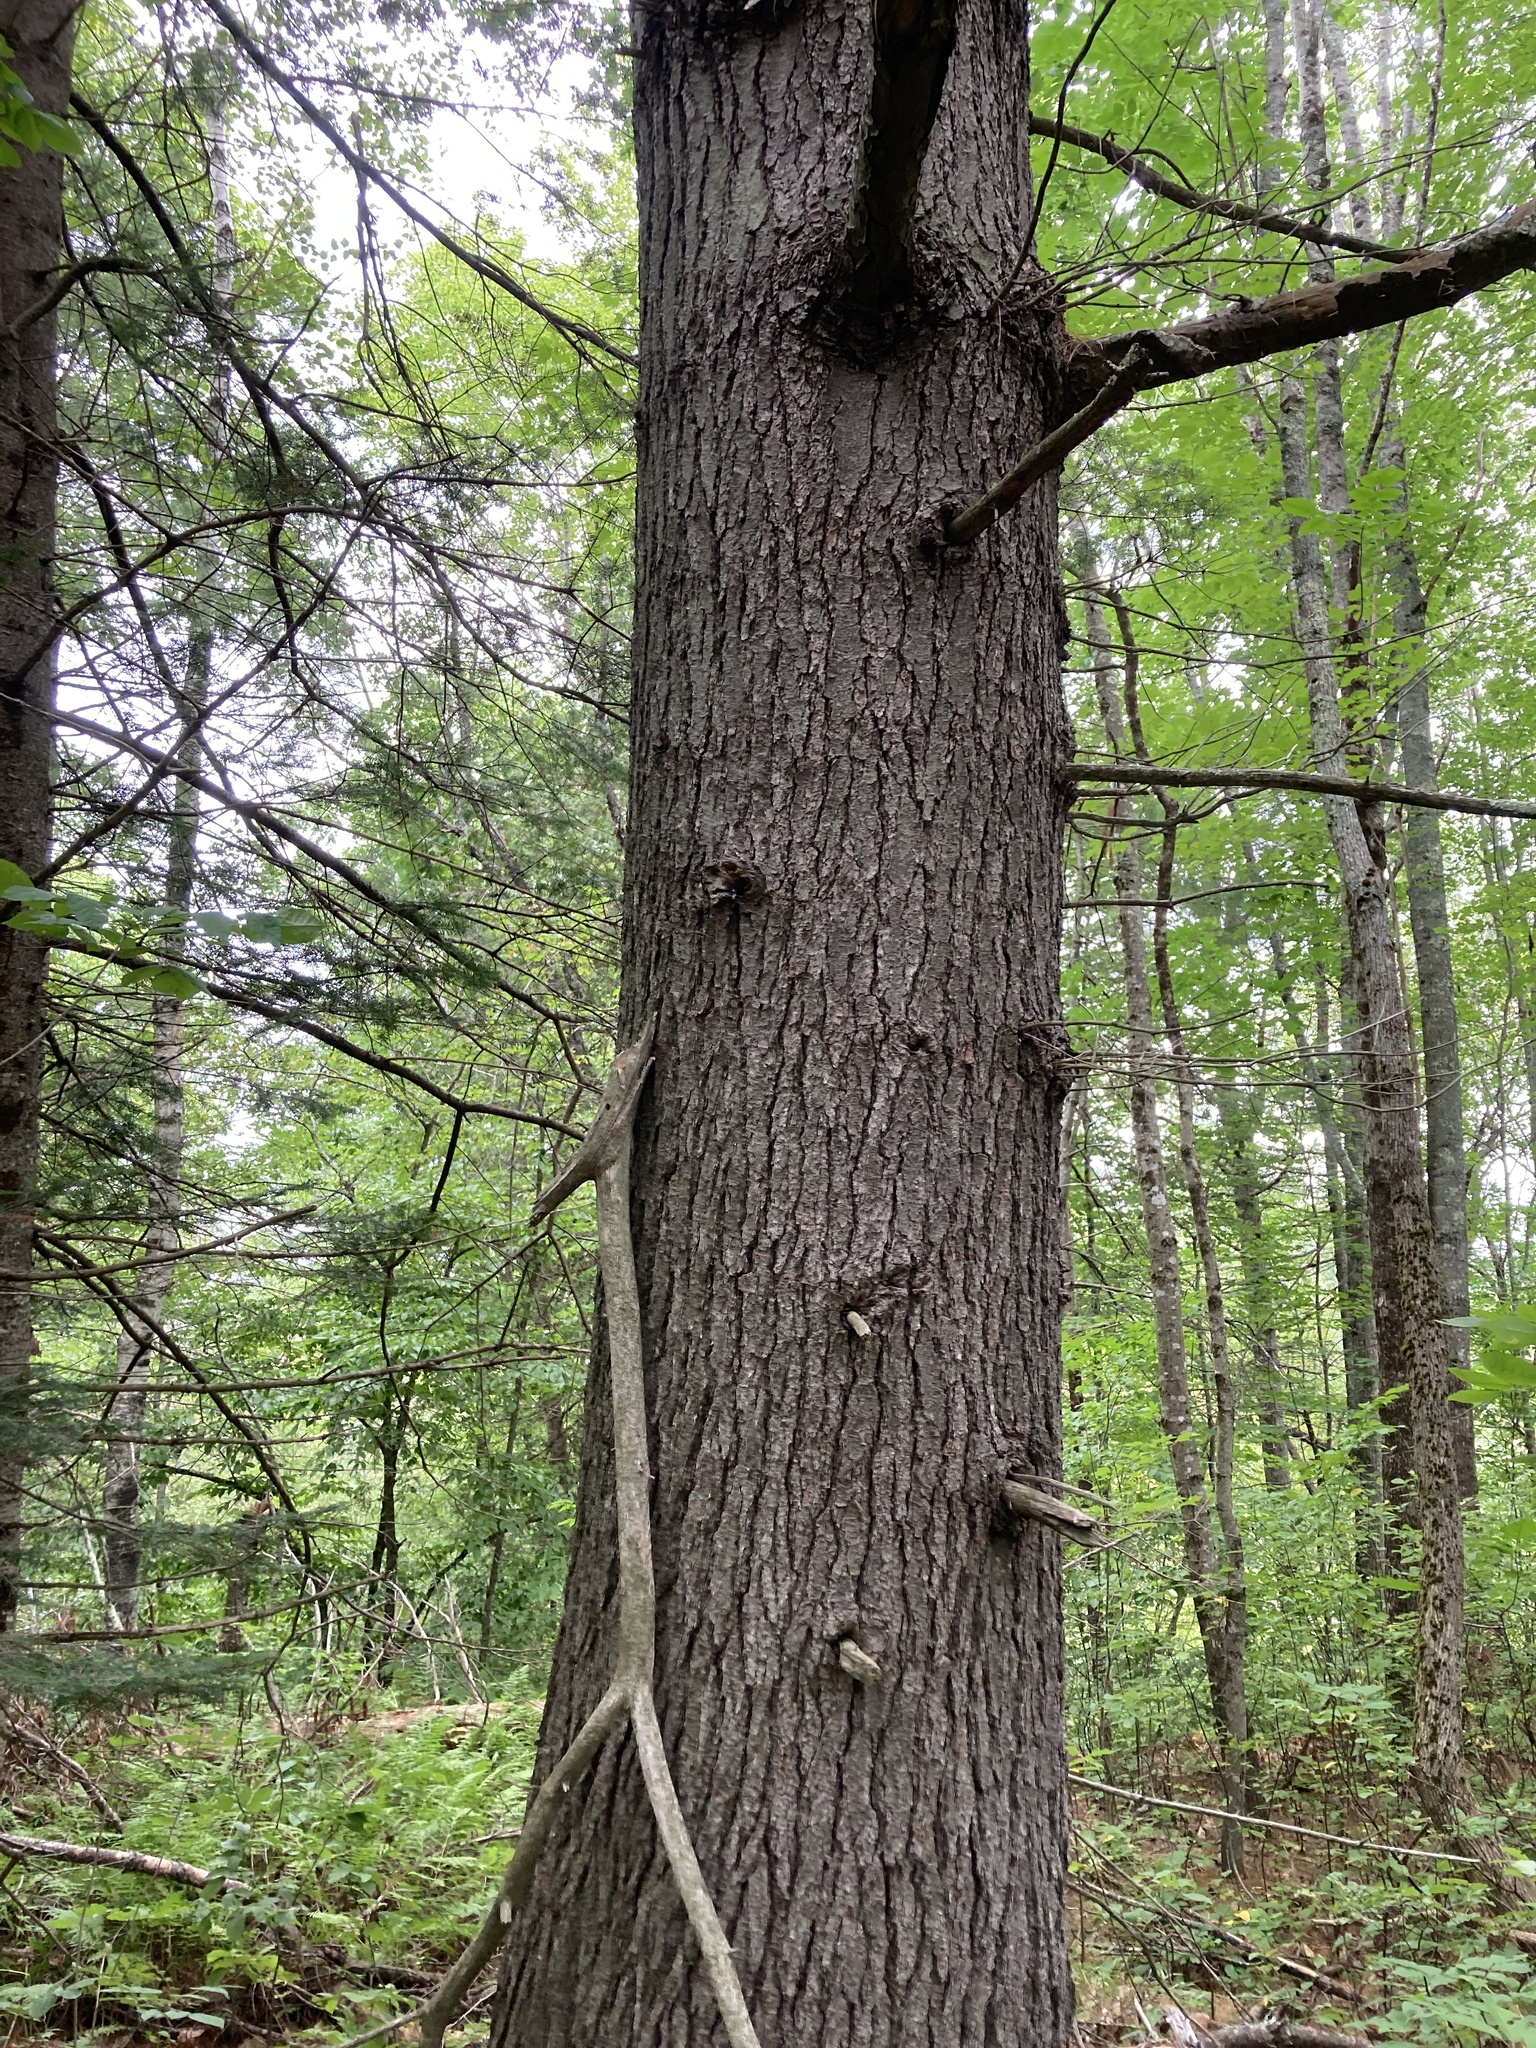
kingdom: Plantae
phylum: Tracheophyta
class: Pinopsida
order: Pinales
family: Pinaceae
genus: Pinus
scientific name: Pinus strobus
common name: Weymouth pine
